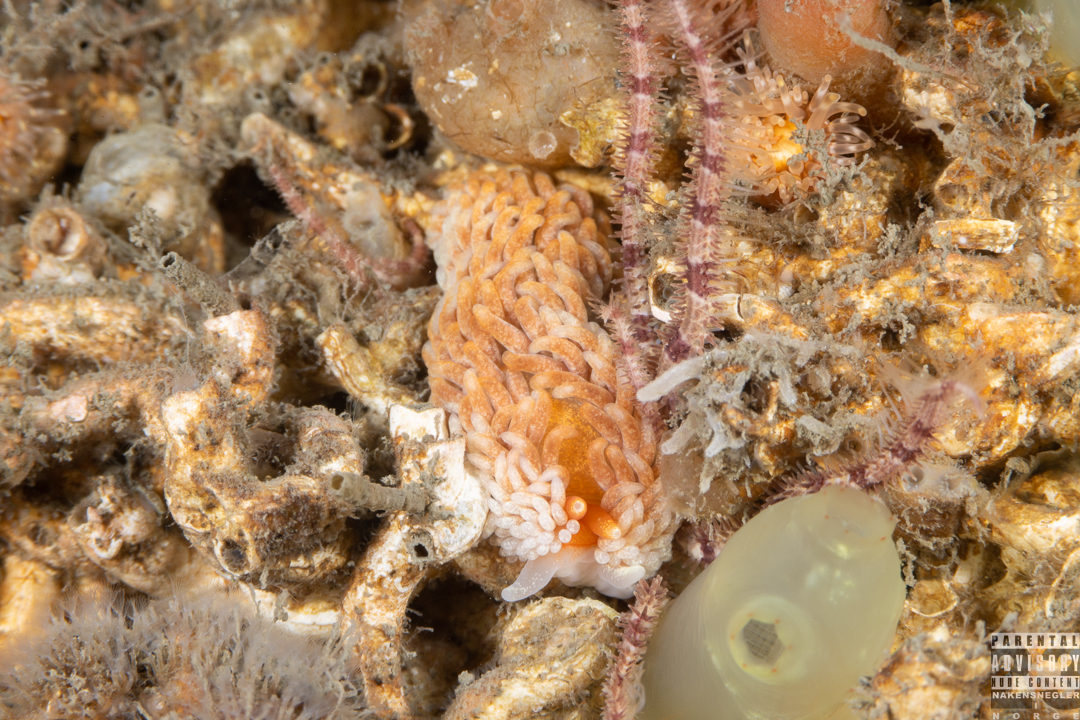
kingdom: Animalia
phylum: Mollusca
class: Gastropoda
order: Nudibranchia
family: Aeolidiidae
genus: Aeolidiella
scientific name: Aeolidiella glauca
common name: Orange-brown aeolid
